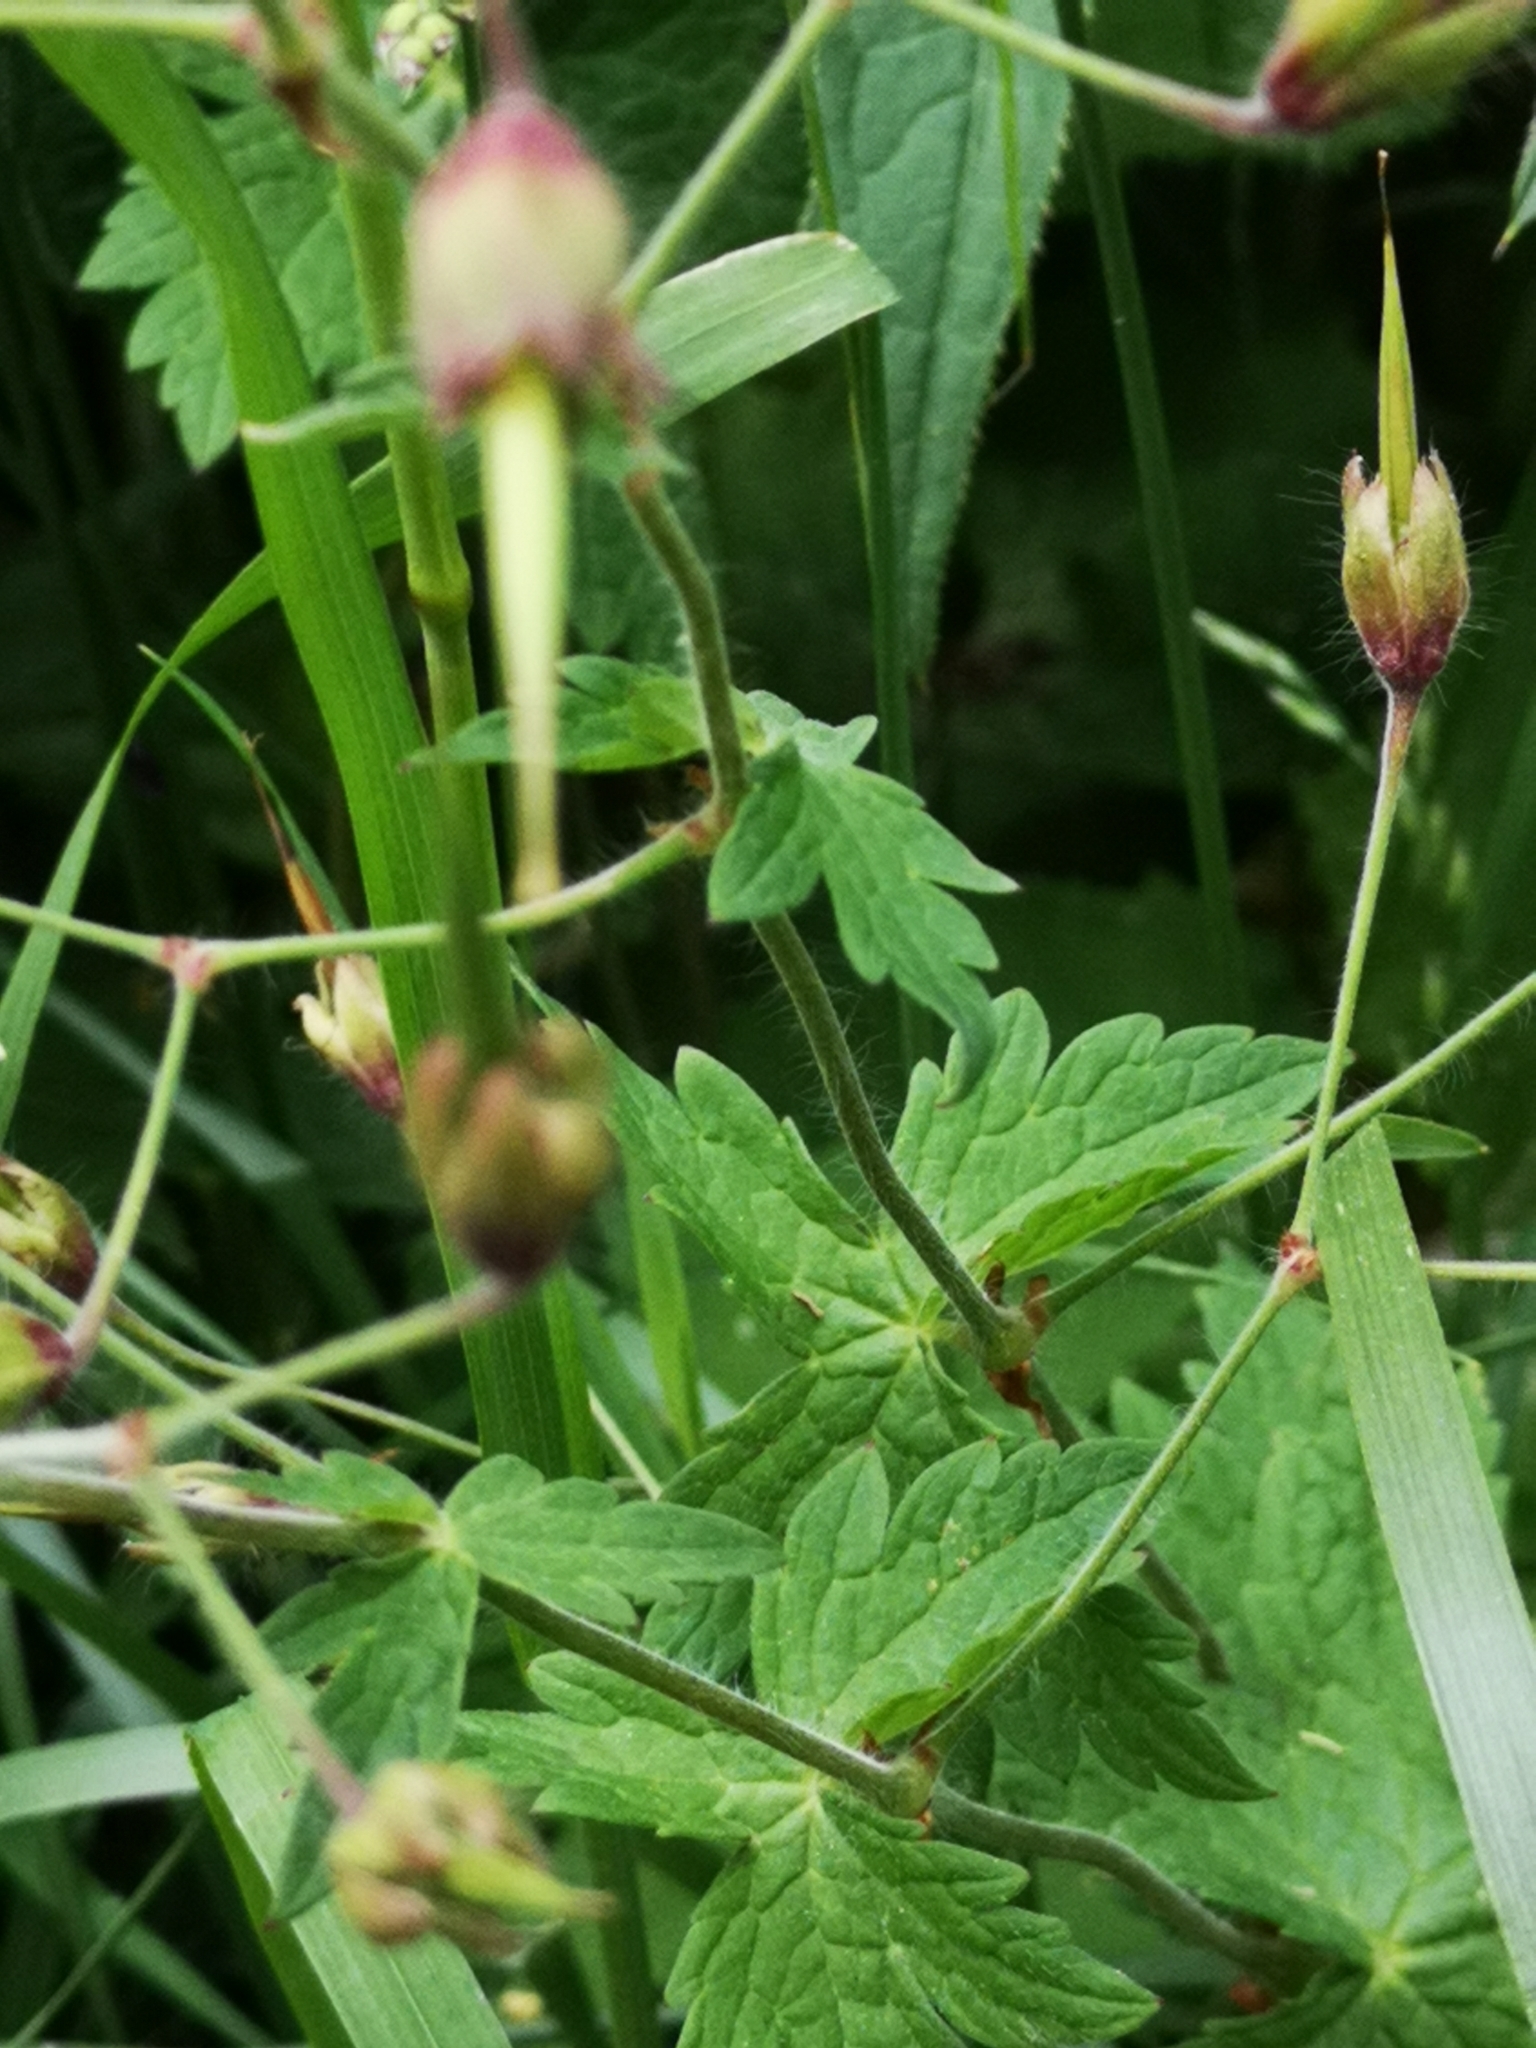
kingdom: Plantae
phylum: Tracheophyta
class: Magnoliopsida
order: Geraniales
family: Geraniaceae
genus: Geranium
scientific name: Geranium phaeum
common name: Dusky crane's-bill
